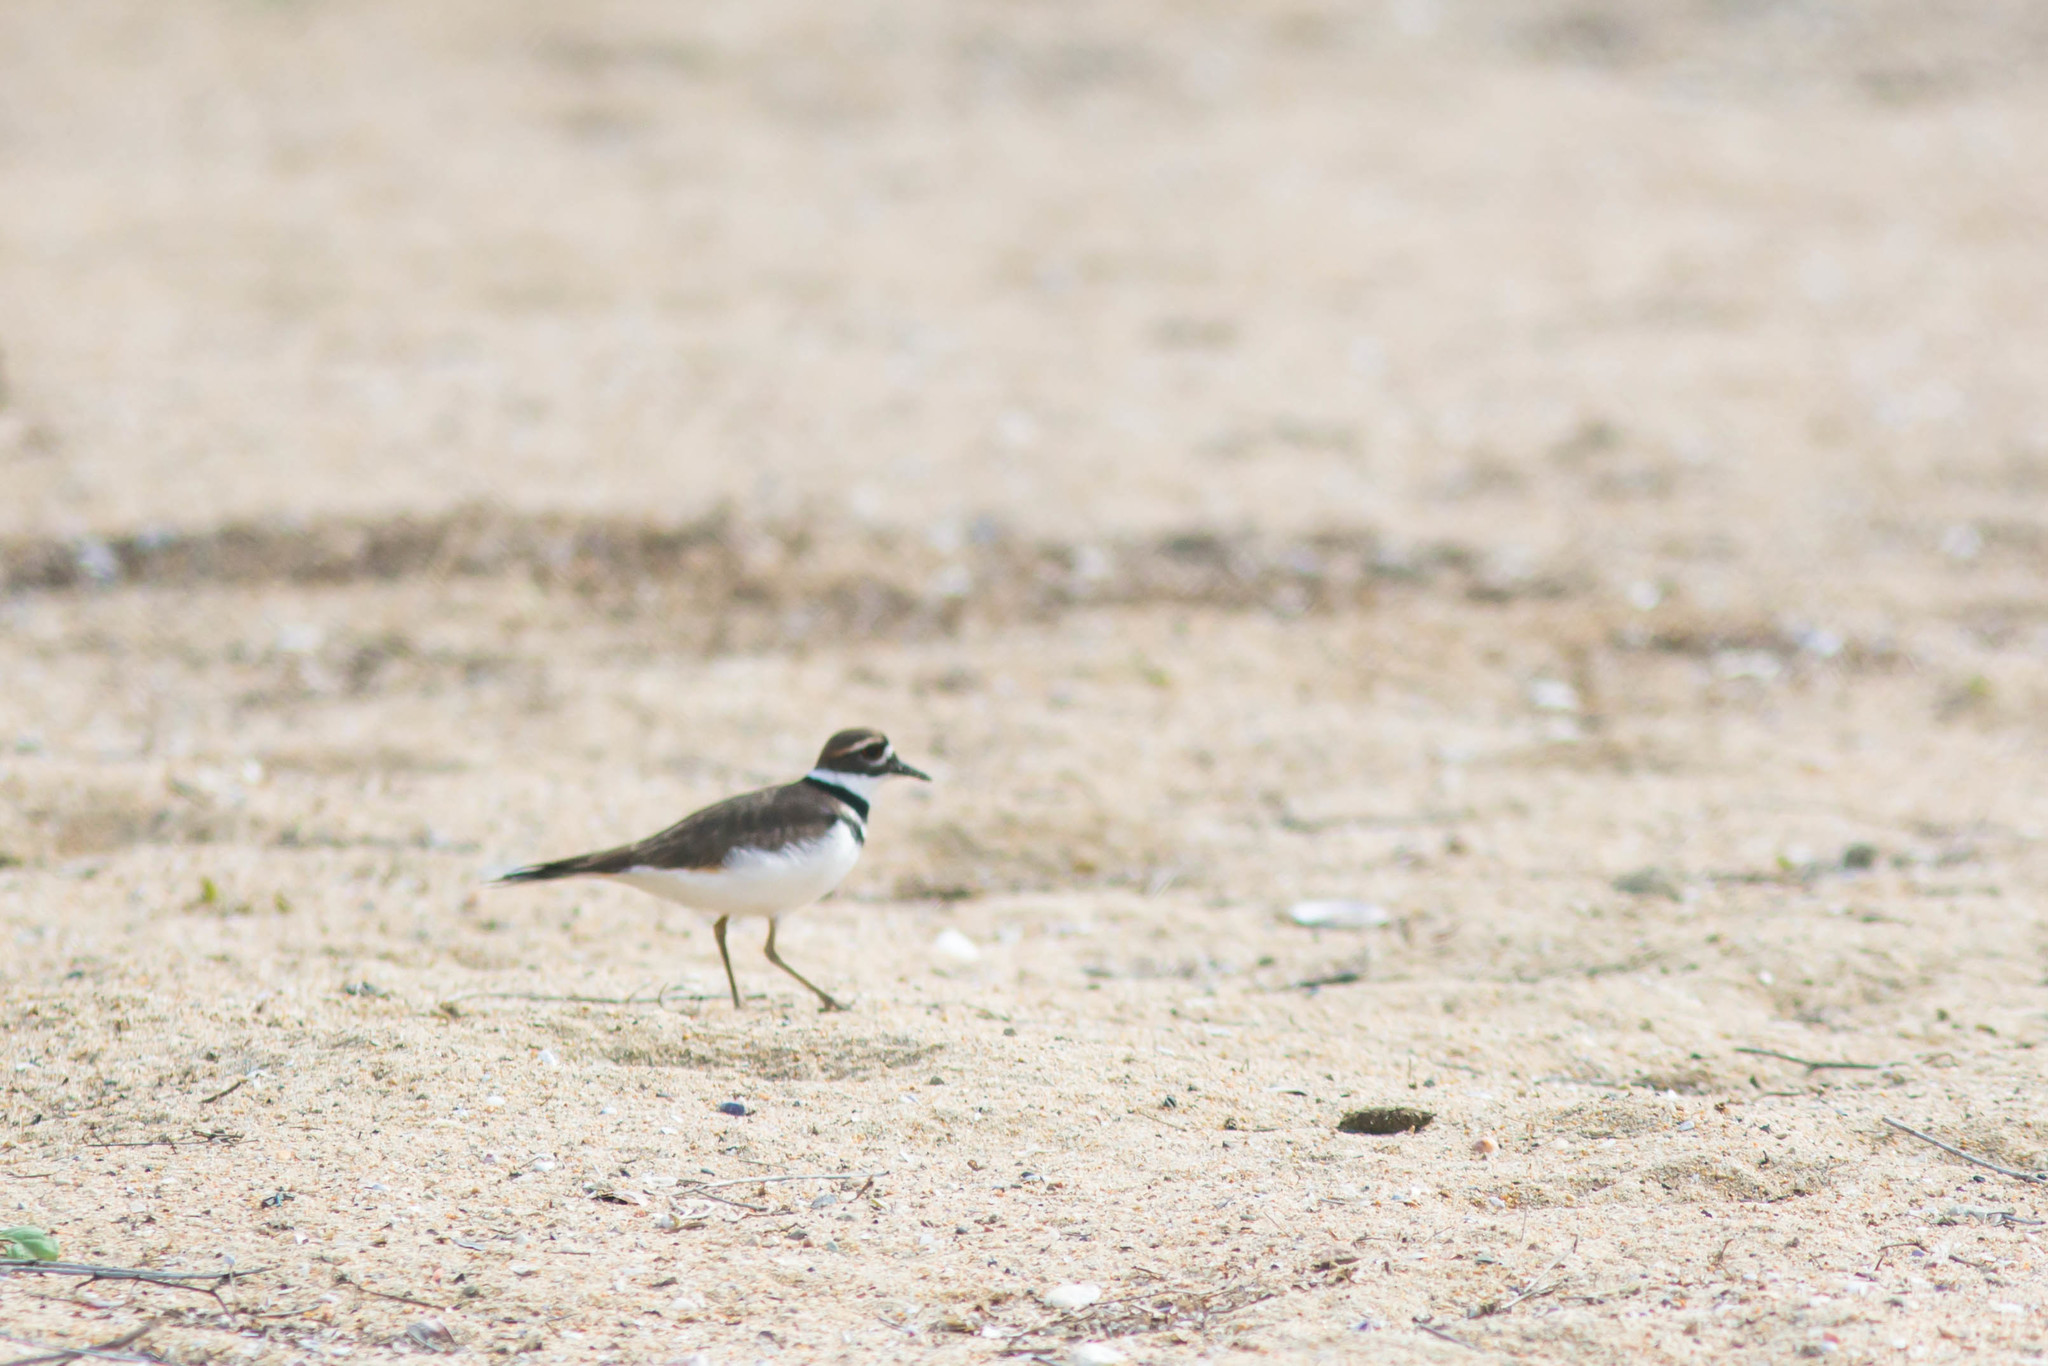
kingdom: Animalia
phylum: Chordata
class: Aves
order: Charadriiformes
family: Charadriidae
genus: Charadrius
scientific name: Charadrius vociferus
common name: Killdeer
